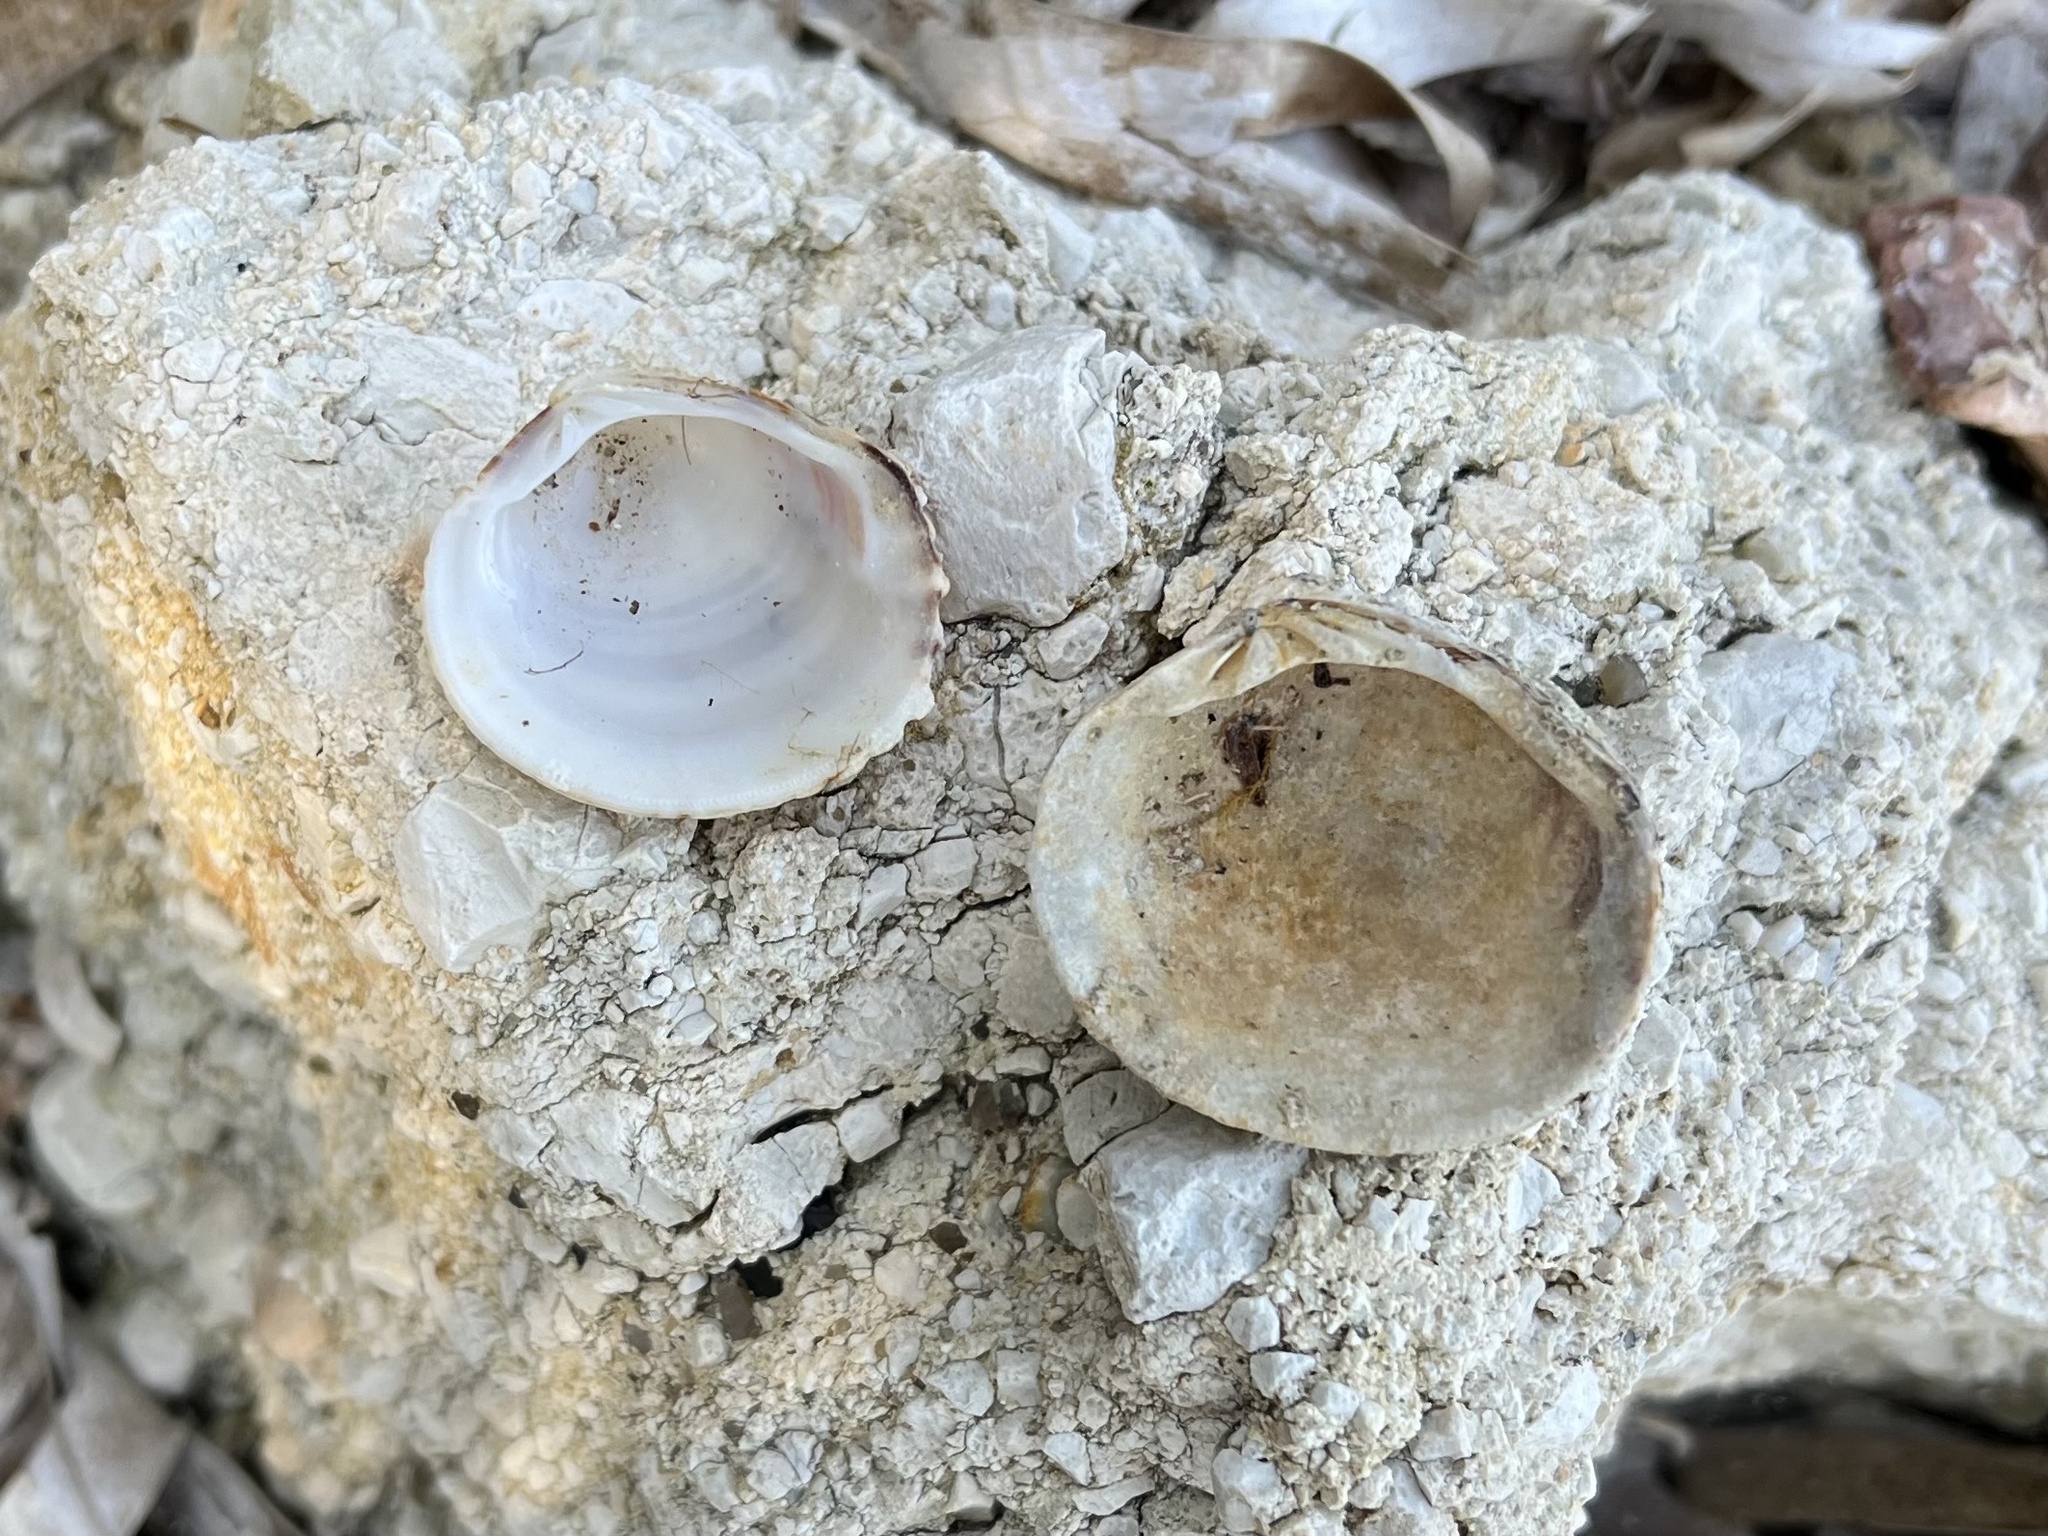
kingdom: Animalia
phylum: Mollusca
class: Bivalvia
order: Venerida
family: Veneridae
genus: Venus
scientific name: Venus verrucosa
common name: Warty venus
